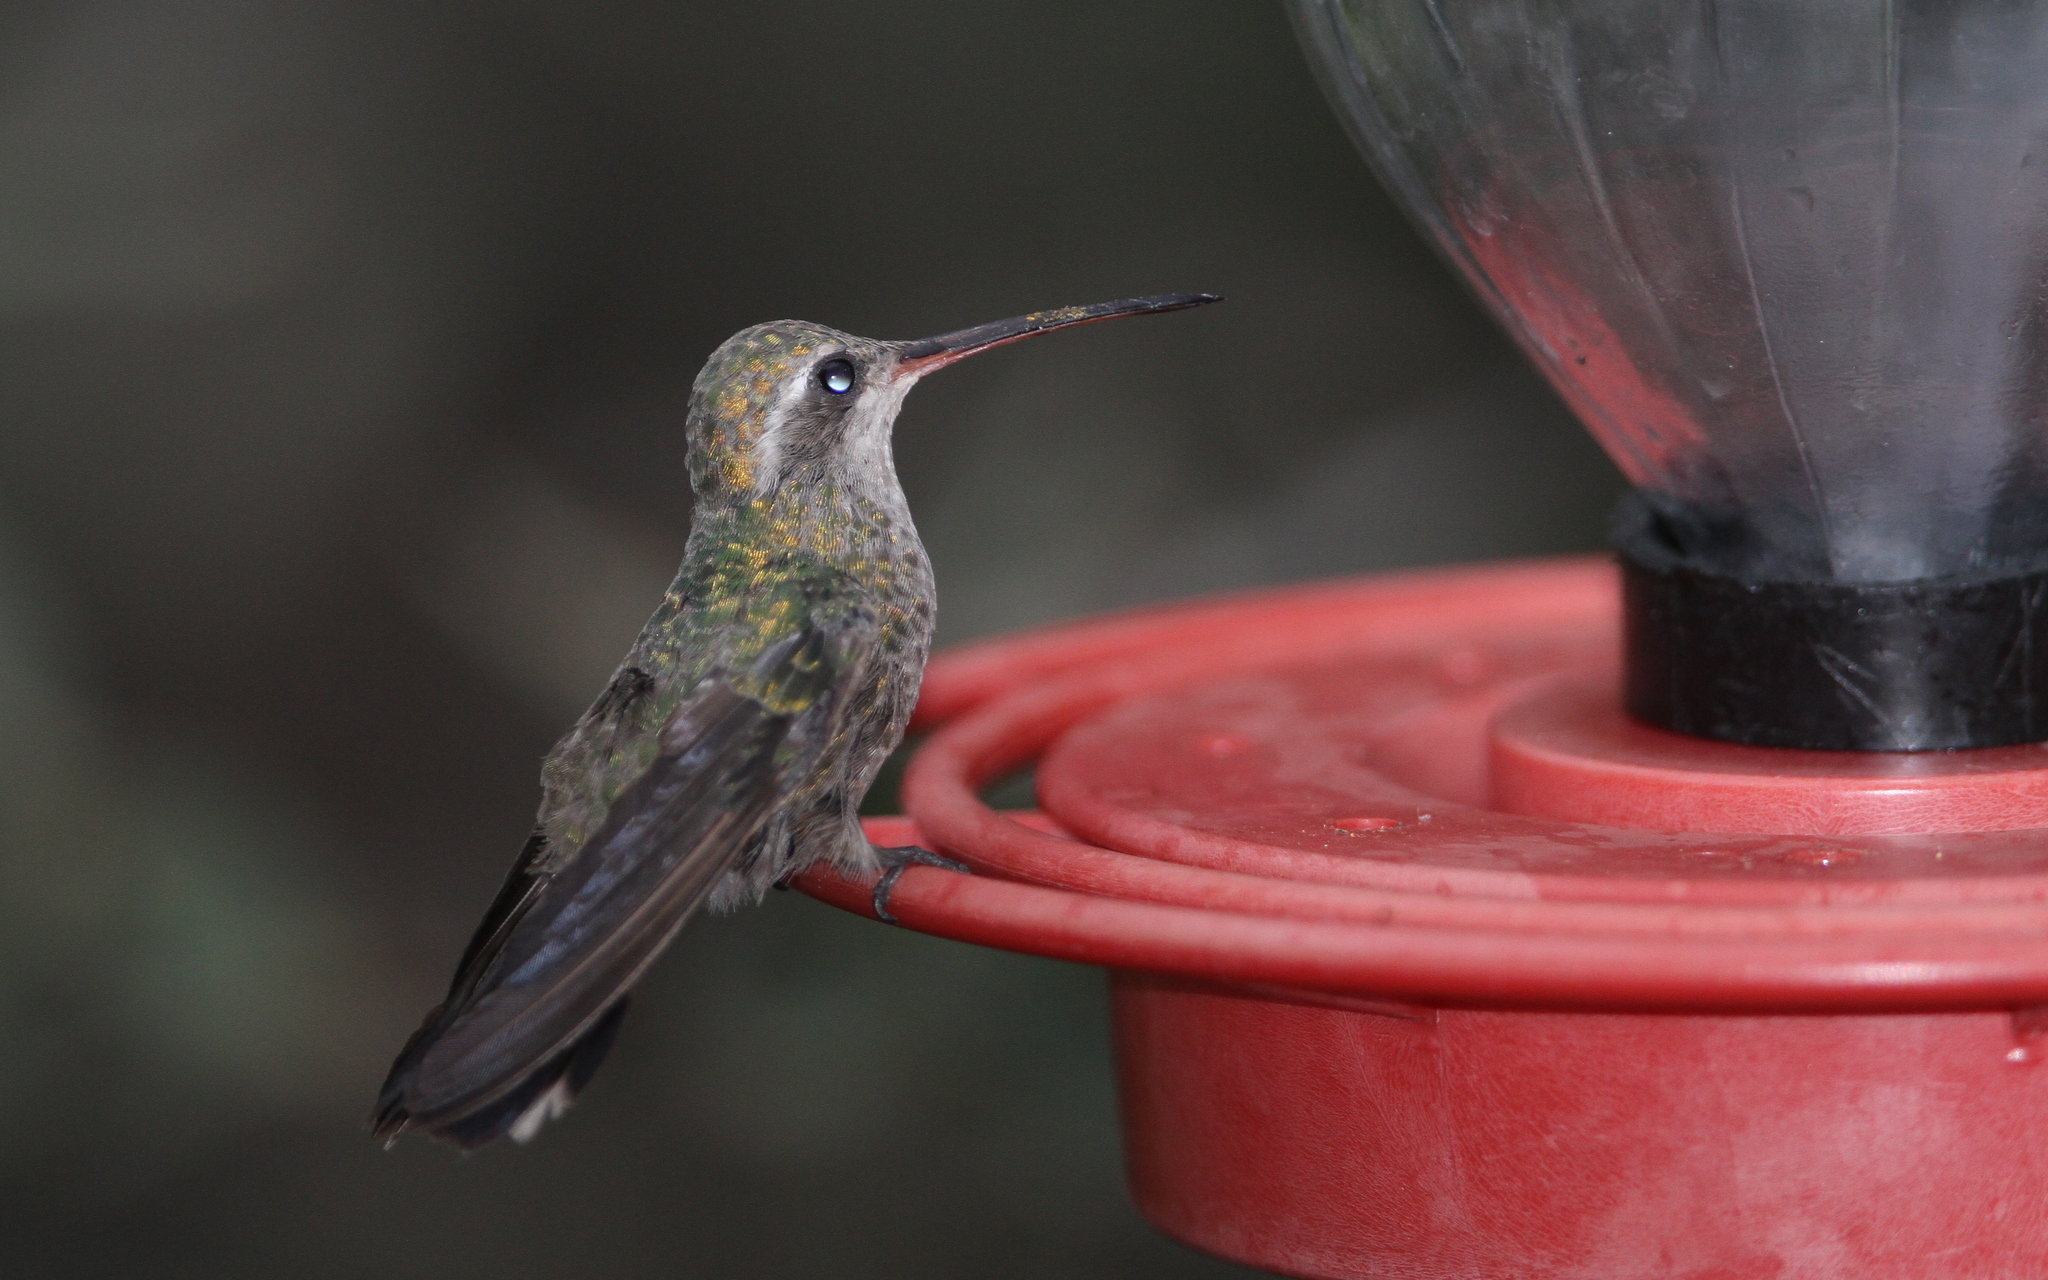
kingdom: Animalia
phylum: Chordata
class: Aves
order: Apodiformes
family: Trochilidae
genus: Cynanthus
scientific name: Cynanthus latirostris
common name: Broad-billed hummingbird
